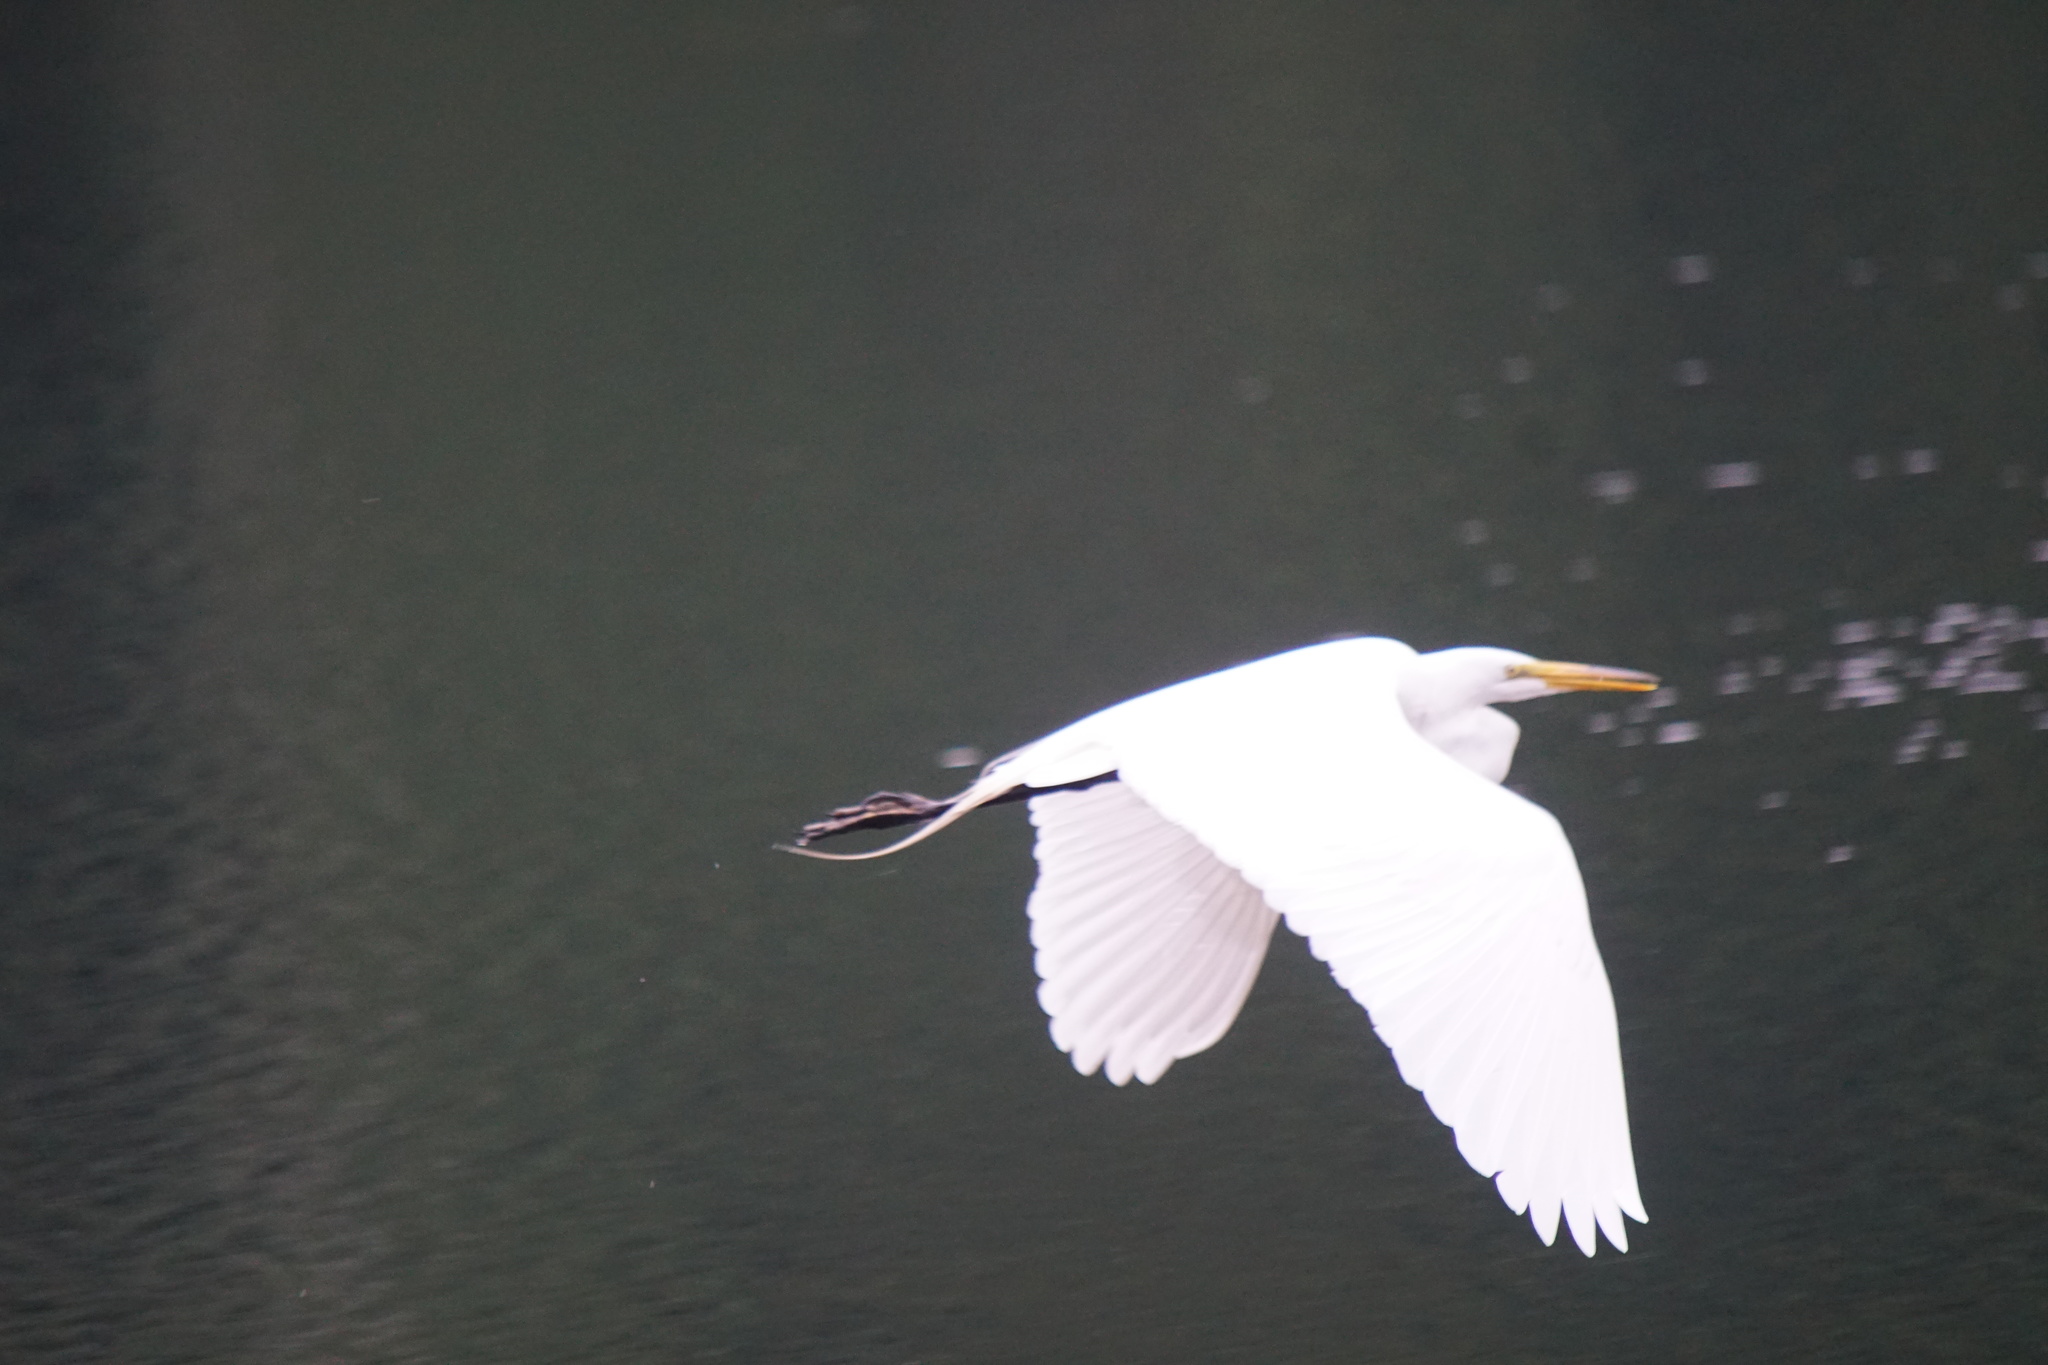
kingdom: Animalia
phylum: Chordata
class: Aves
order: Pelecaniformes
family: Ardeidae
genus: Ardea
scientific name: Ardea alba
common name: Great egret
